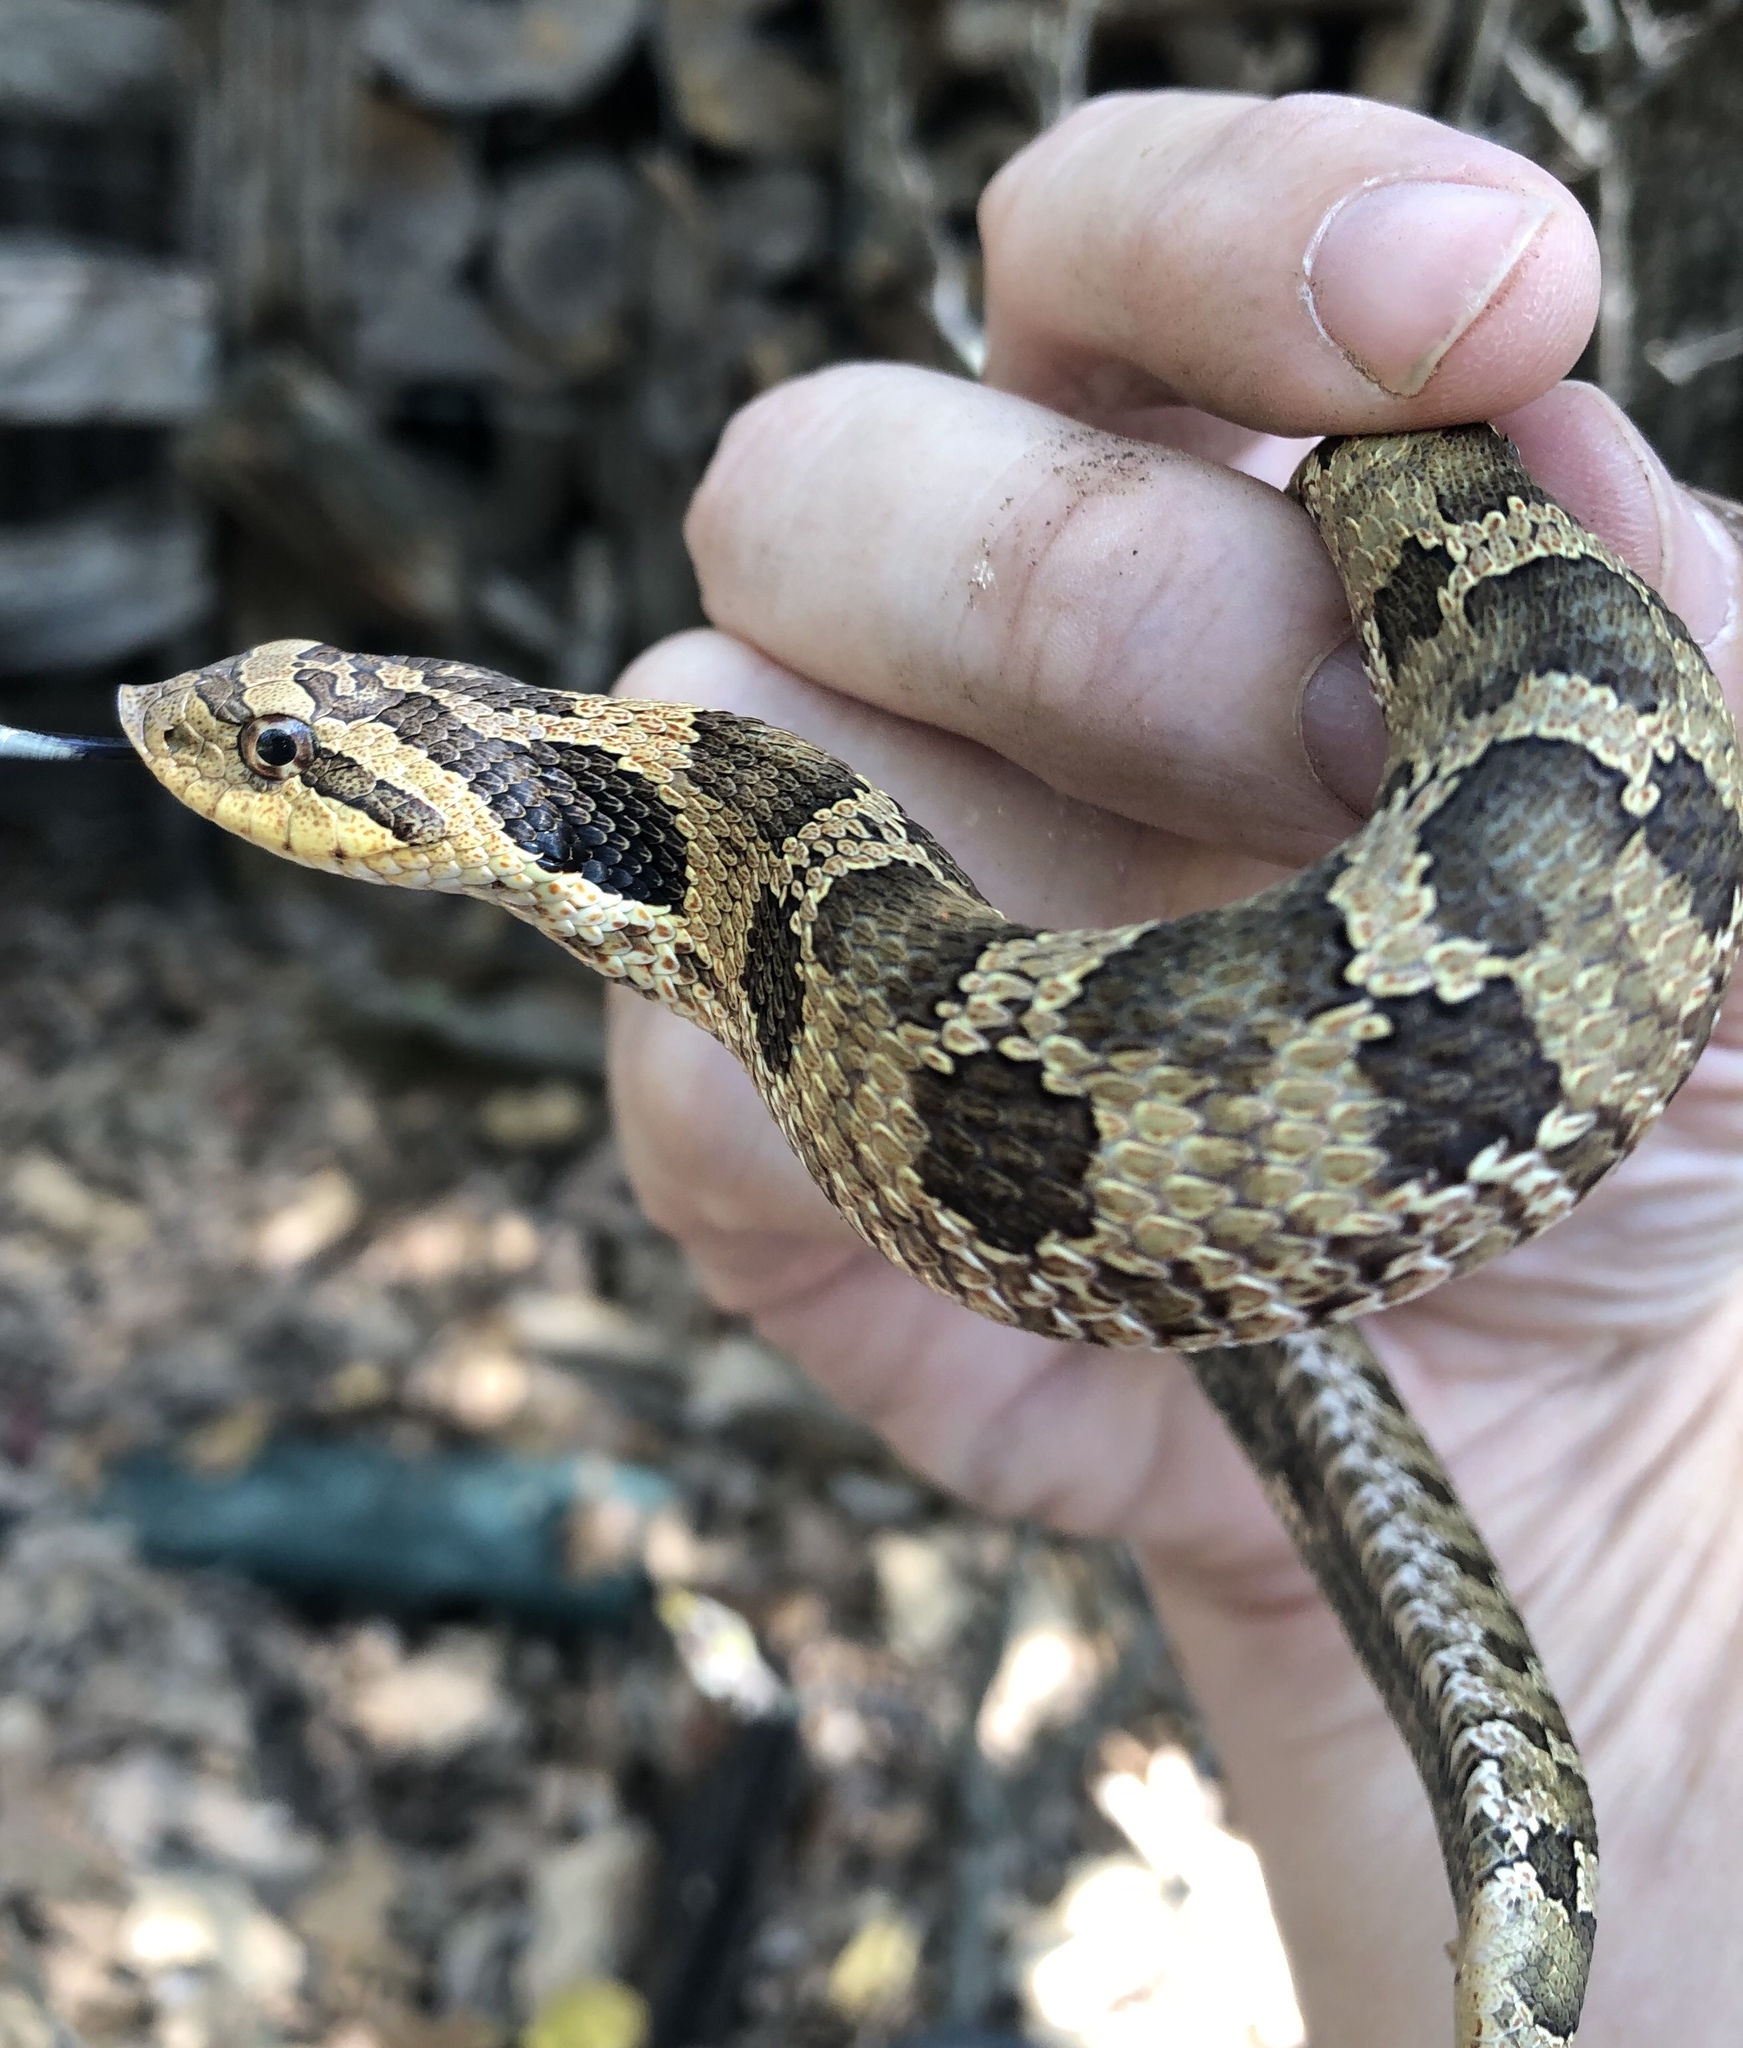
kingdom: Animalia
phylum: Chordata
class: Squamata
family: Colubridae
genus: Heterodon
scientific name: Heterodon platirhinos
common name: Eastern hognose snake
